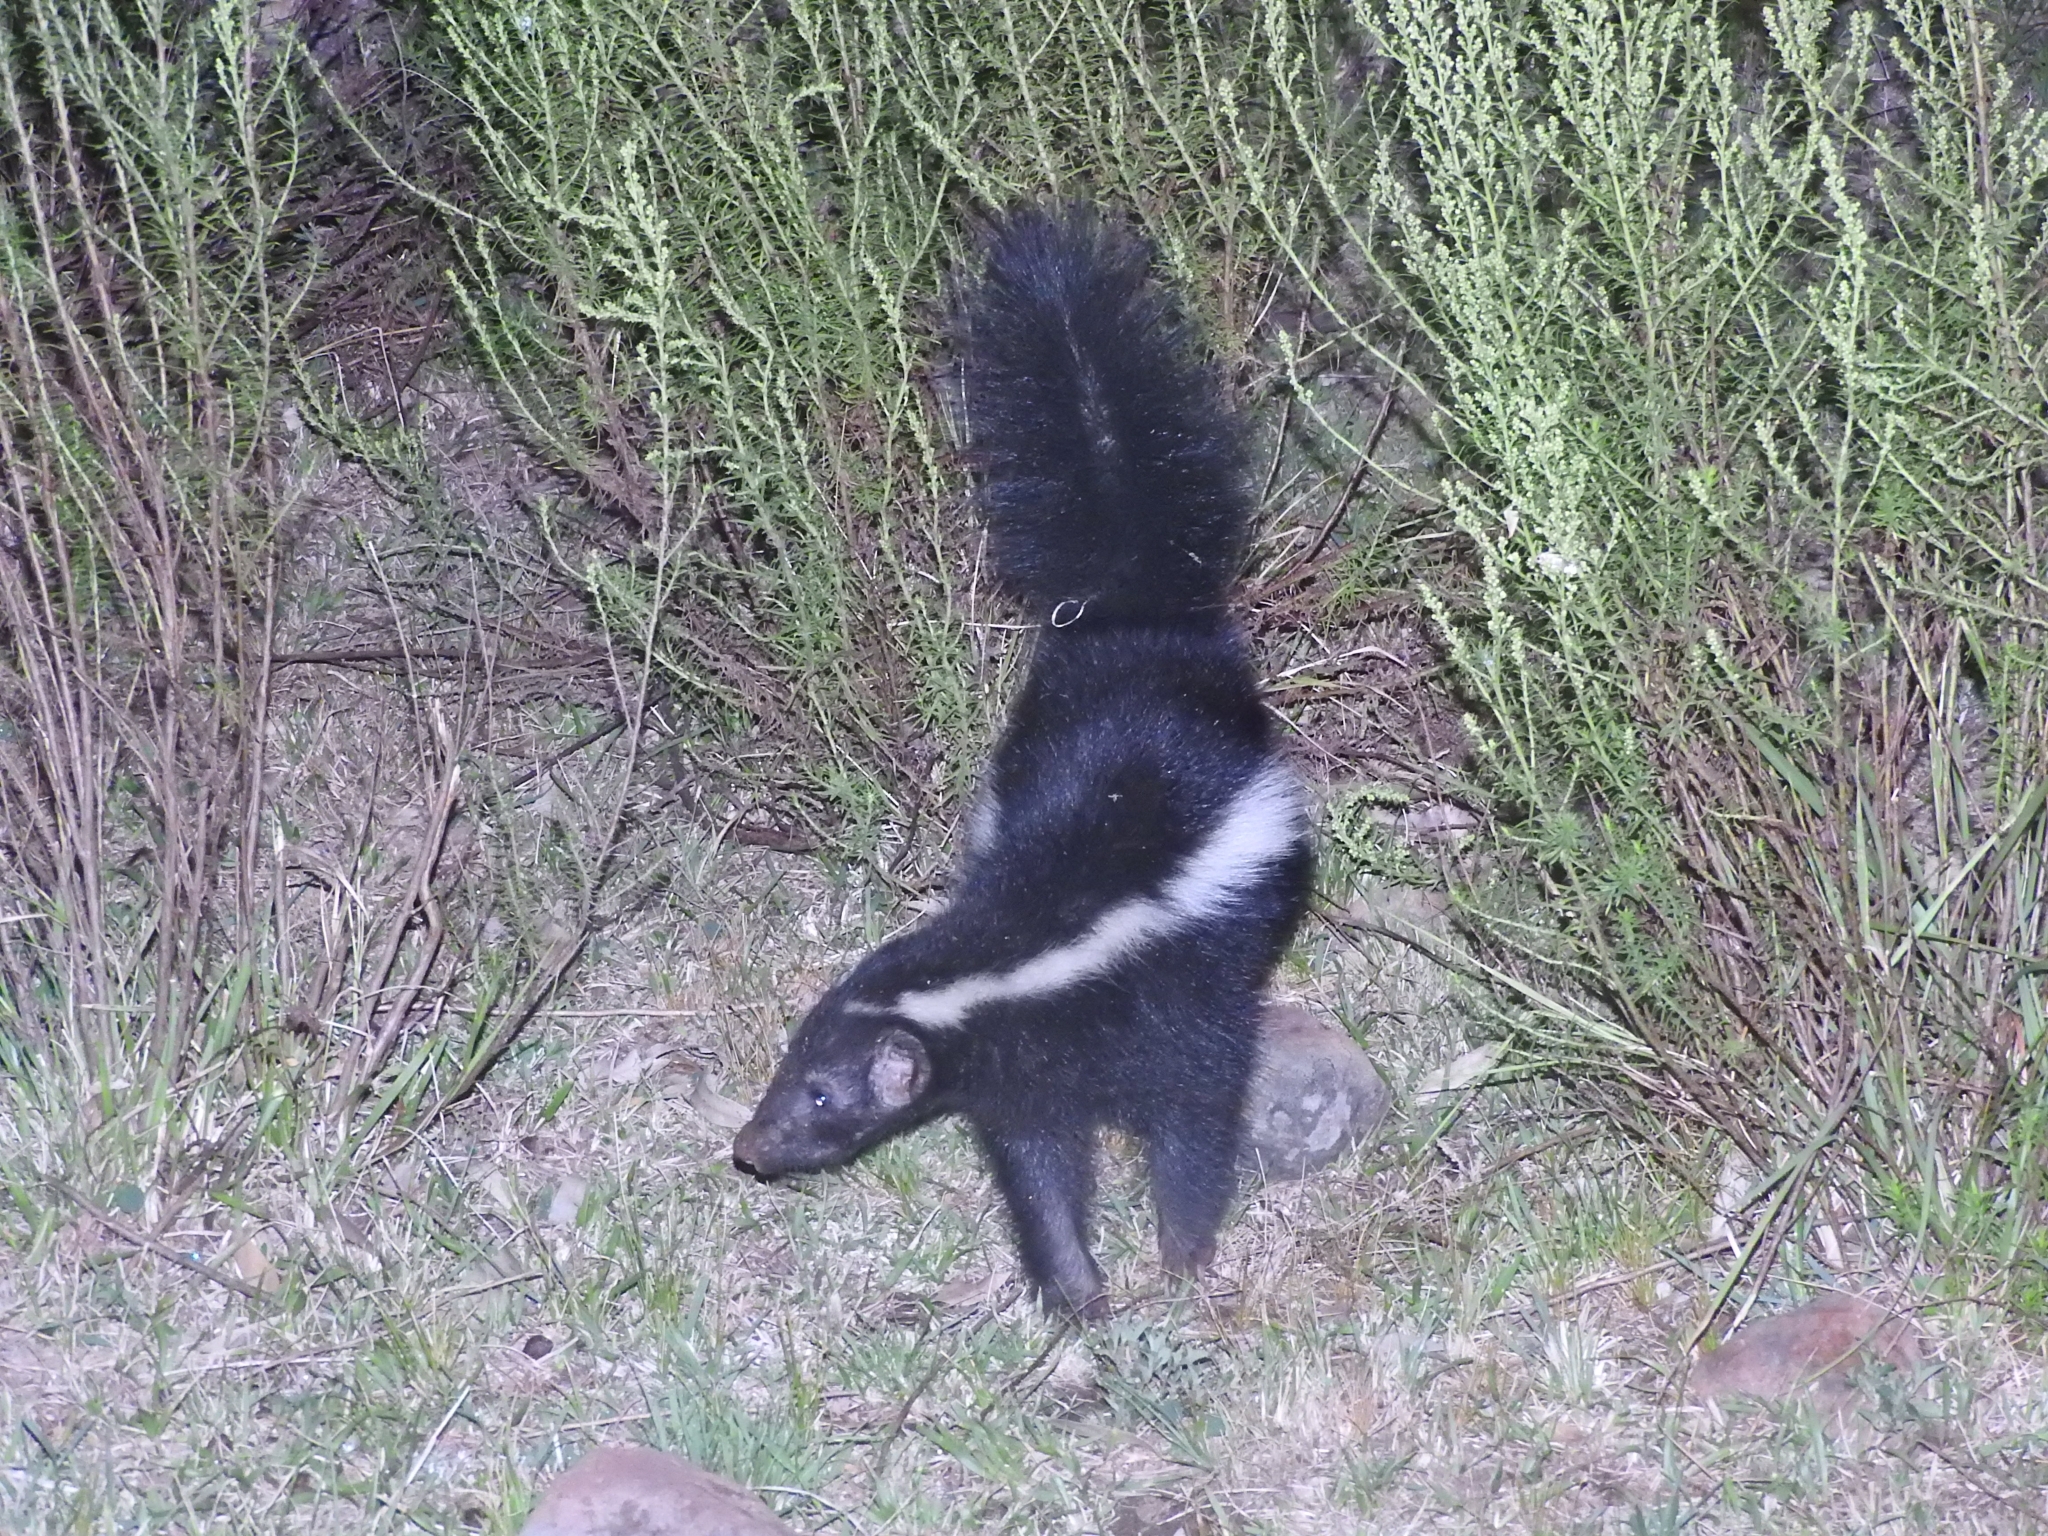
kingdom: Animalia
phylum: Chordata
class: Mammalia
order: Carnivora
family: Mephitidae
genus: Conepatus
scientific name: Conepatus chinga
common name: Molina's hog-nosed skunk
